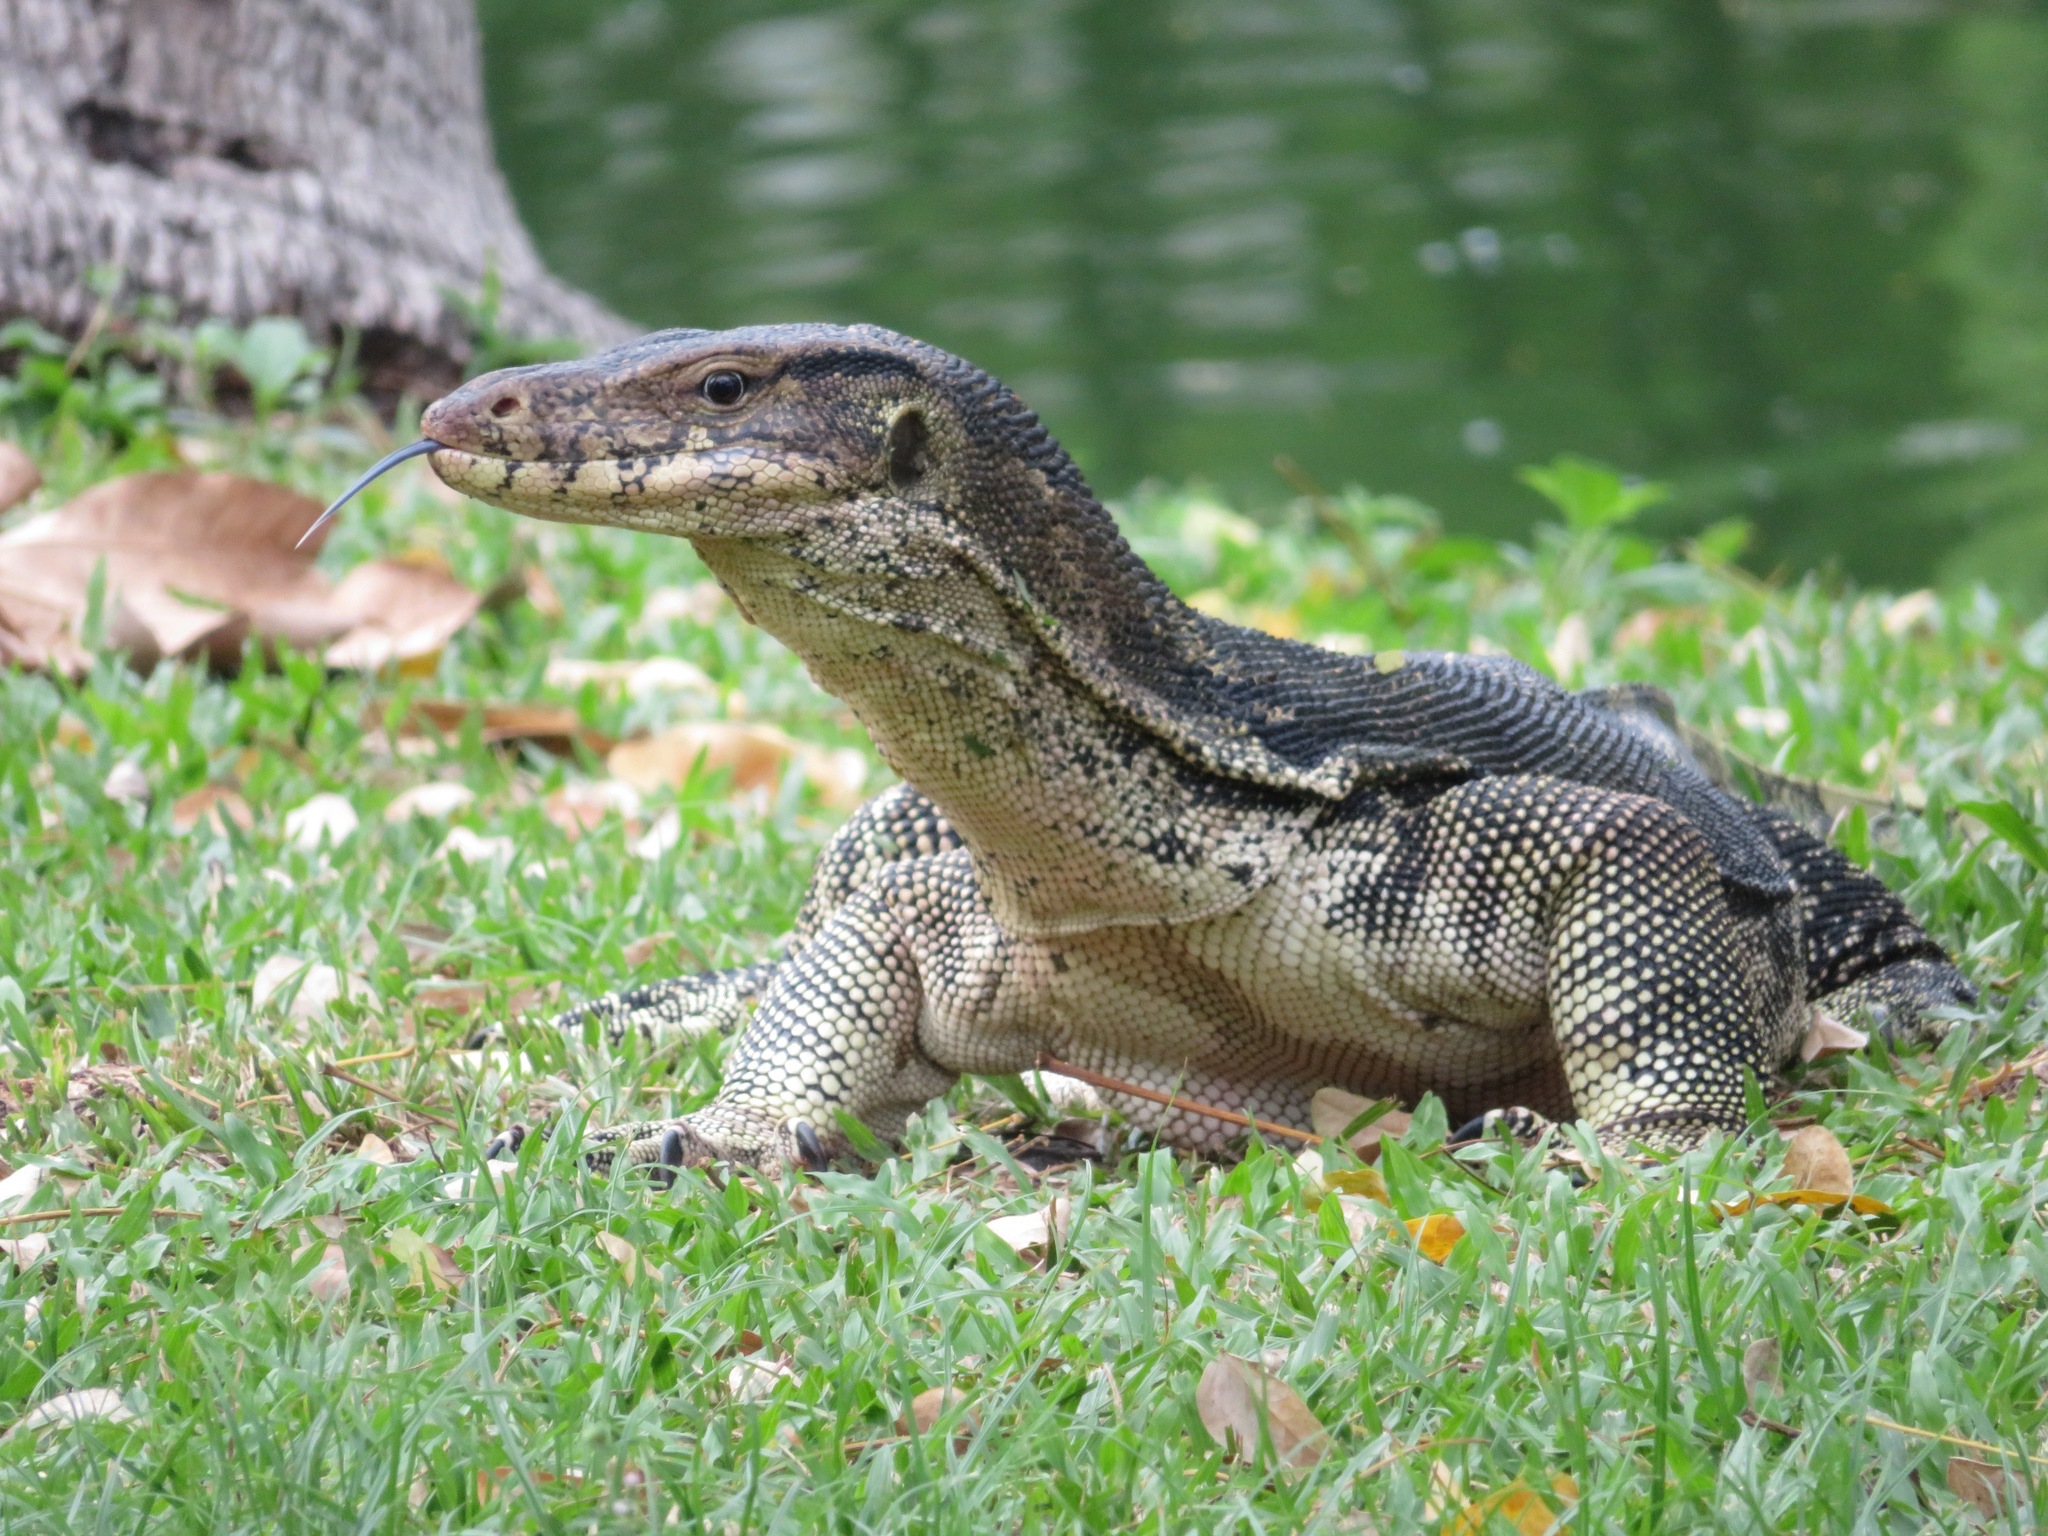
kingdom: Animalia
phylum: Chordata
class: Squamata
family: Varanidae
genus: Varanus
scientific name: Varanus salvator
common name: Common water monitor
